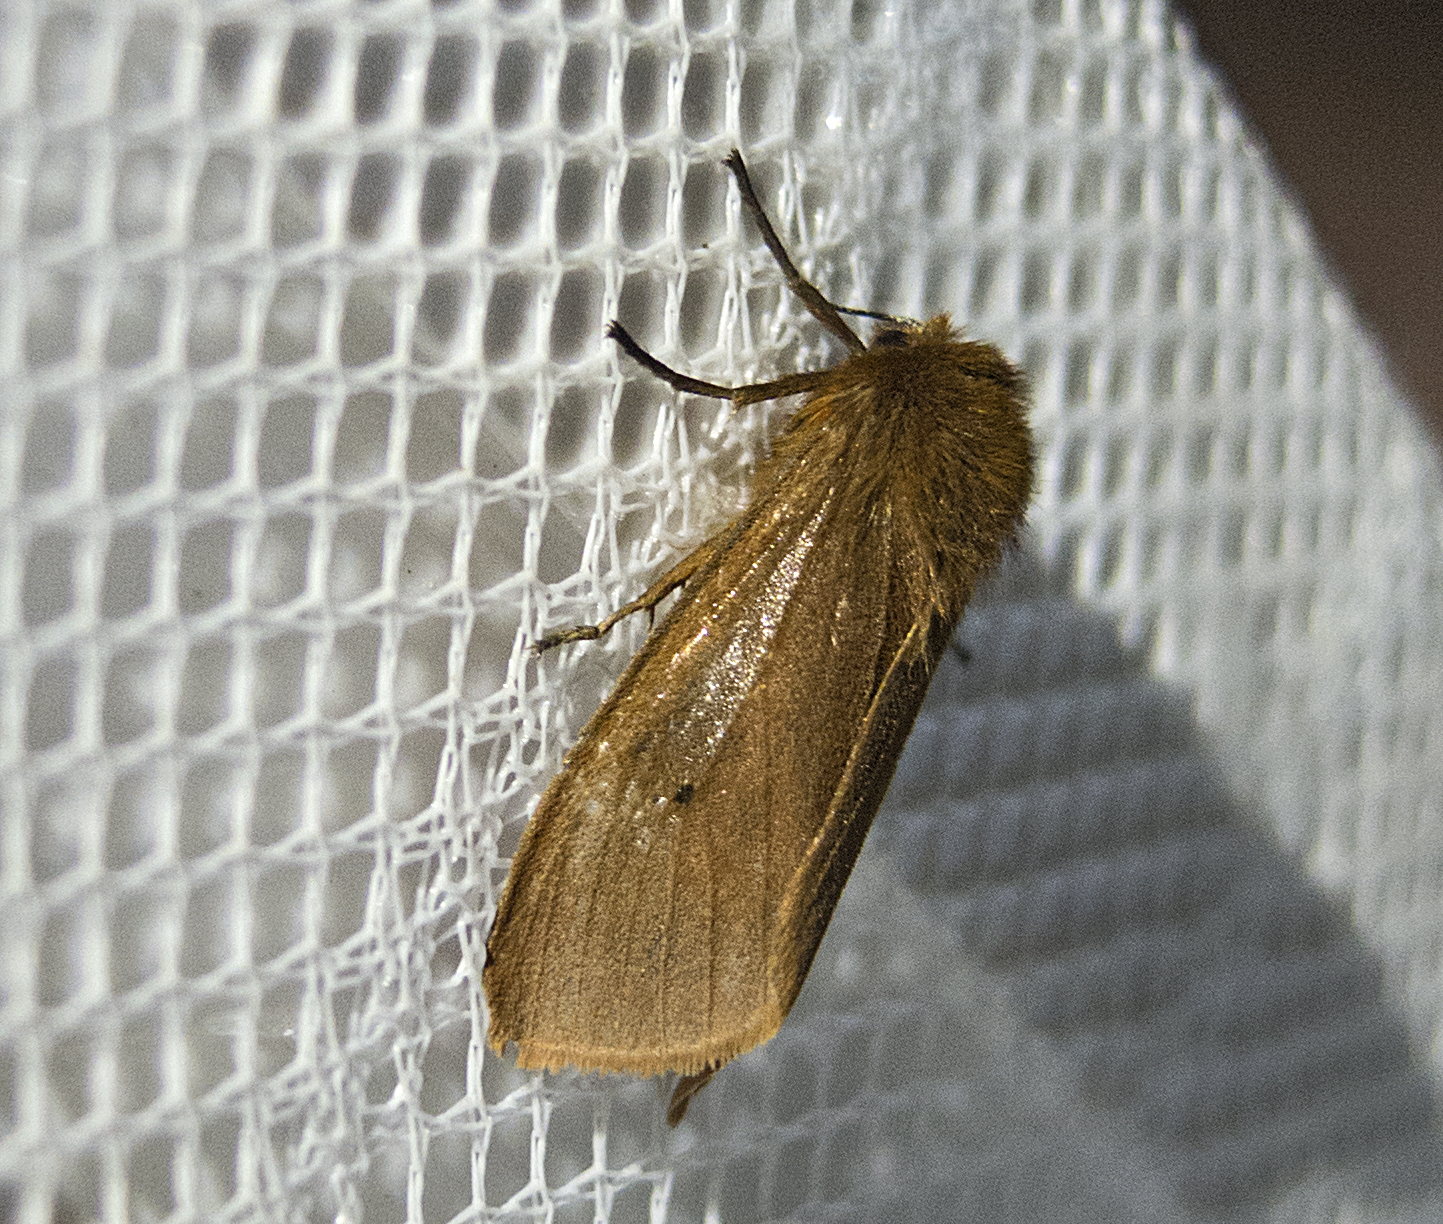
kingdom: Animalia
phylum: Arthropoda
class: Insecta
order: Lepidoptera
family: Erebidae
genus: Phragmatobia
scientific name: Phragmatobia fuliginosa
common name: Ruby tiger
